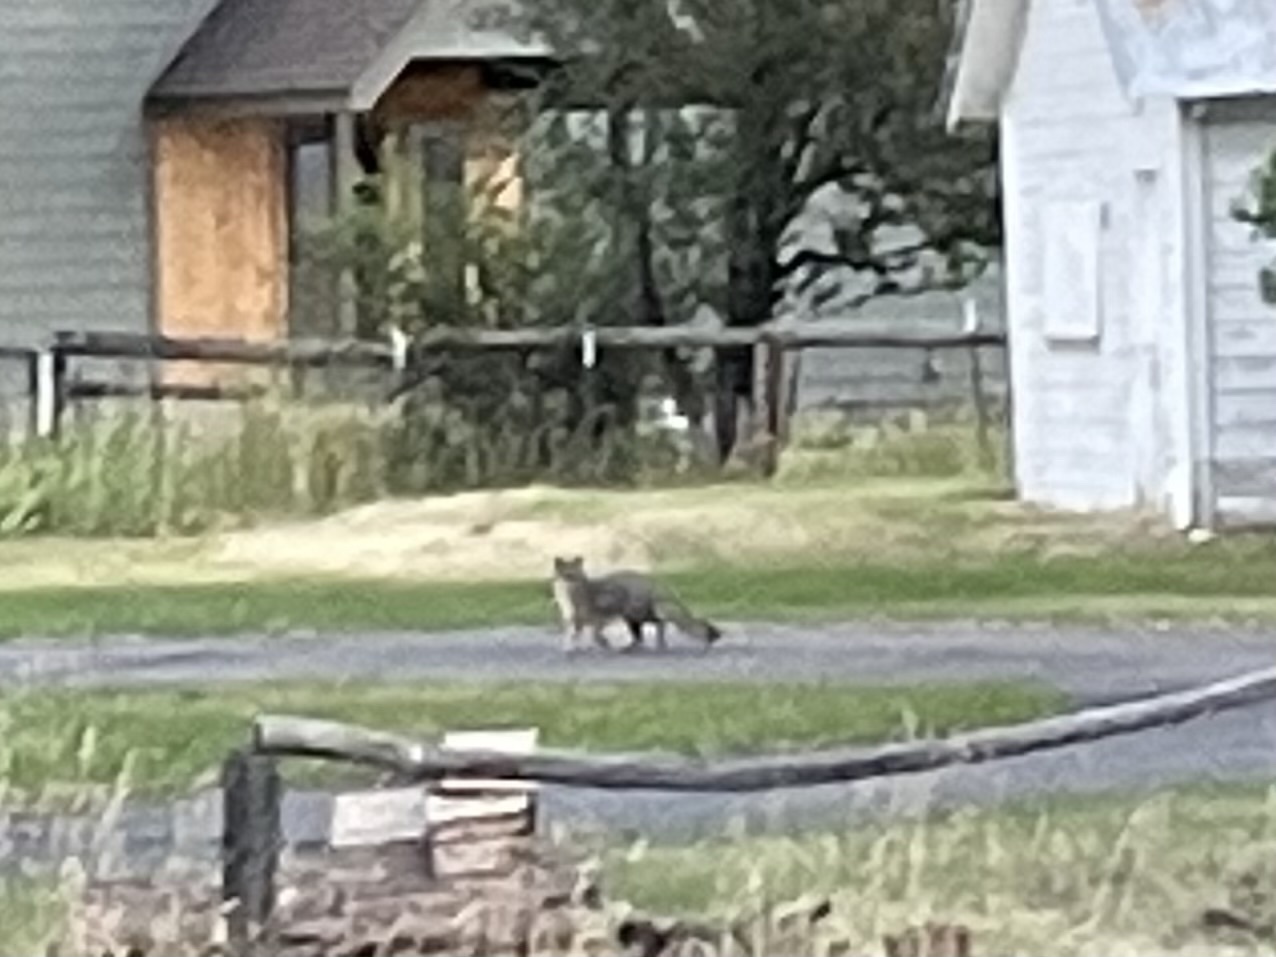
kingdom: Animalia
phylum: Chordata
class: Mammalia
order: Carnivora
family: Canidae
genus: Urocyon
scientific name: Urocyon cinereoargenteus
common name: Gray fox
